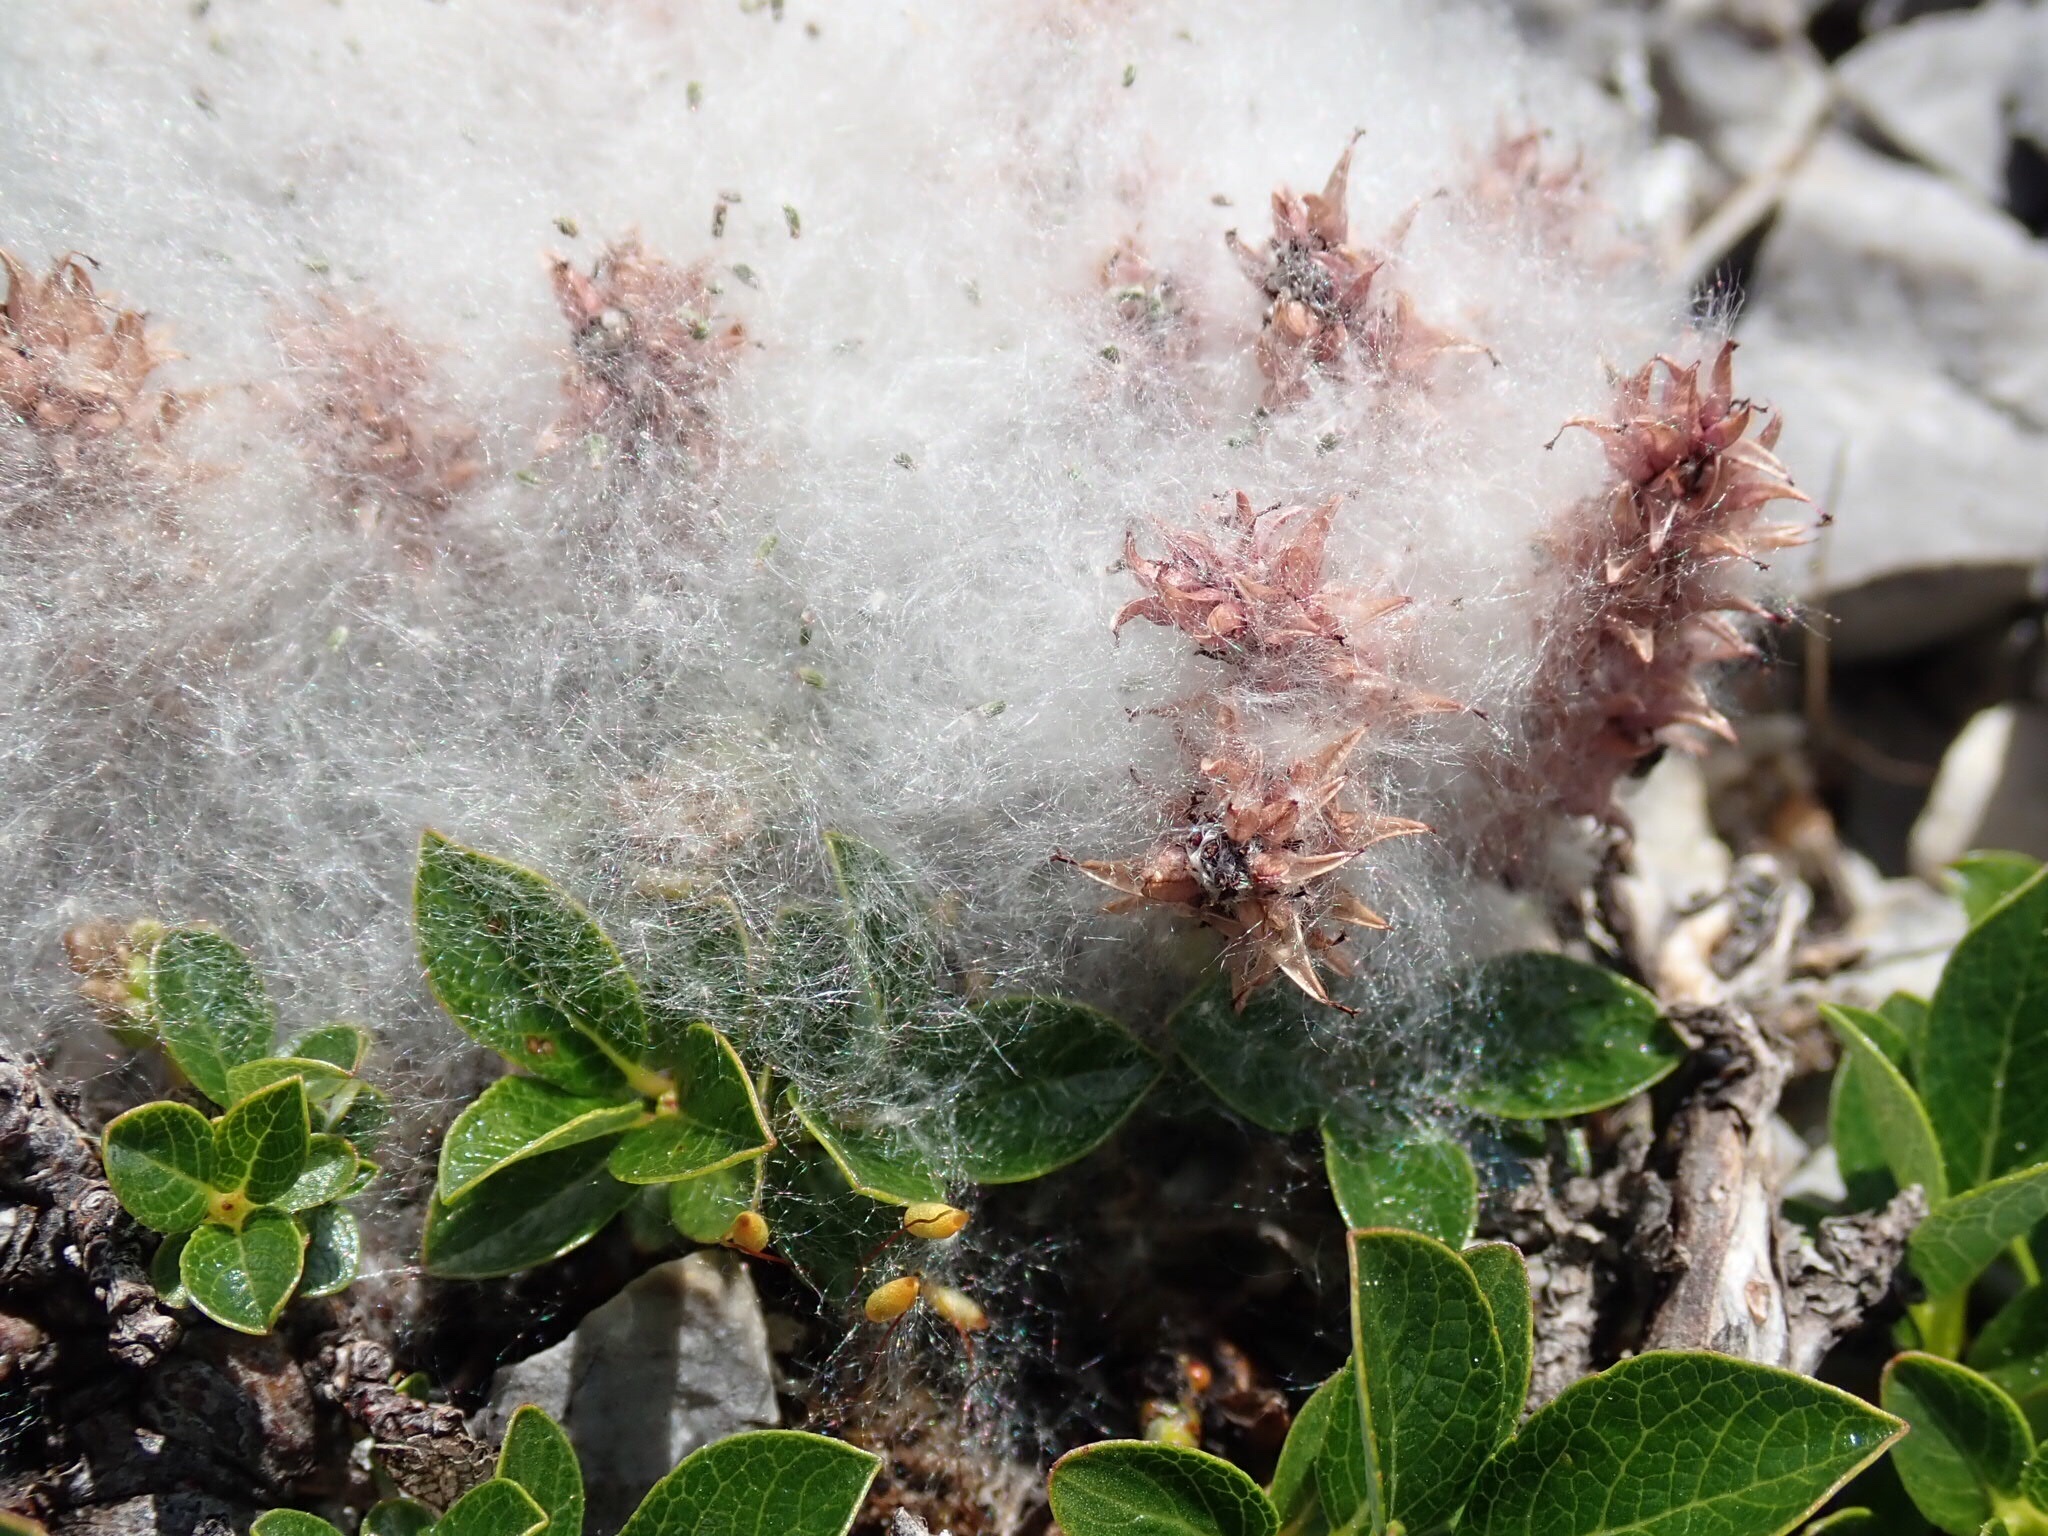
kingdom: Plantae
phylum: Tracheophyta
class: Magnoliopsida
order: Malpighiales
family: Salicaceae
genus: Salix
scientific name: Salix uva-ursi
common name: Bearberry willow
